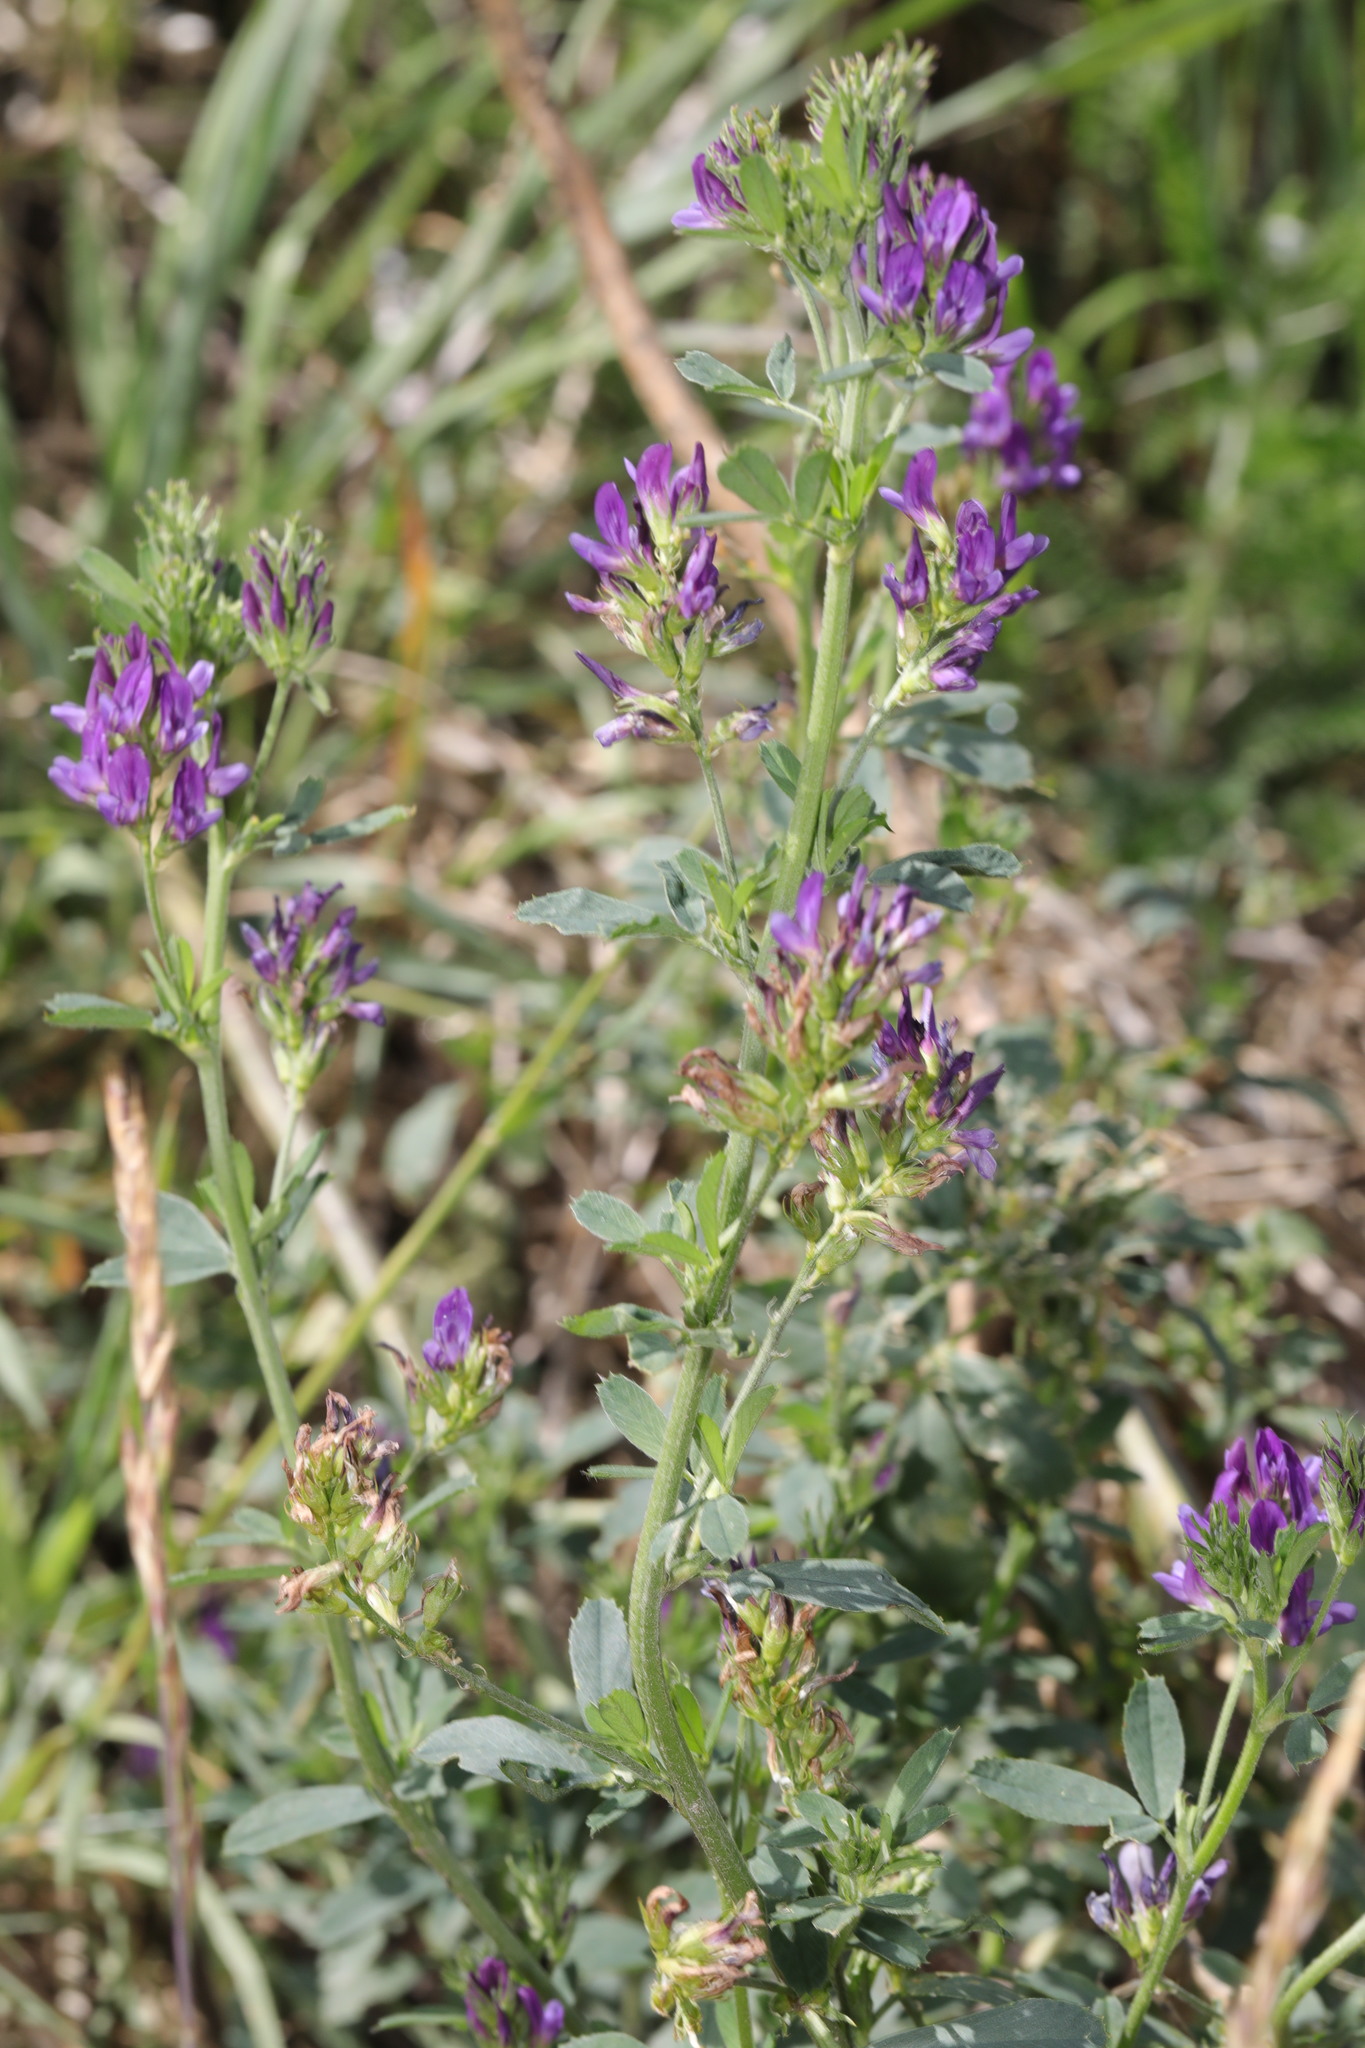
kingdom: Plantae
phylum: Tracheophyta
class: Magnoliopsida
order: Fabales
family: Fabaceae
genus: Medicago
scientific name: Medicago sativa
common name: Alfalfa
